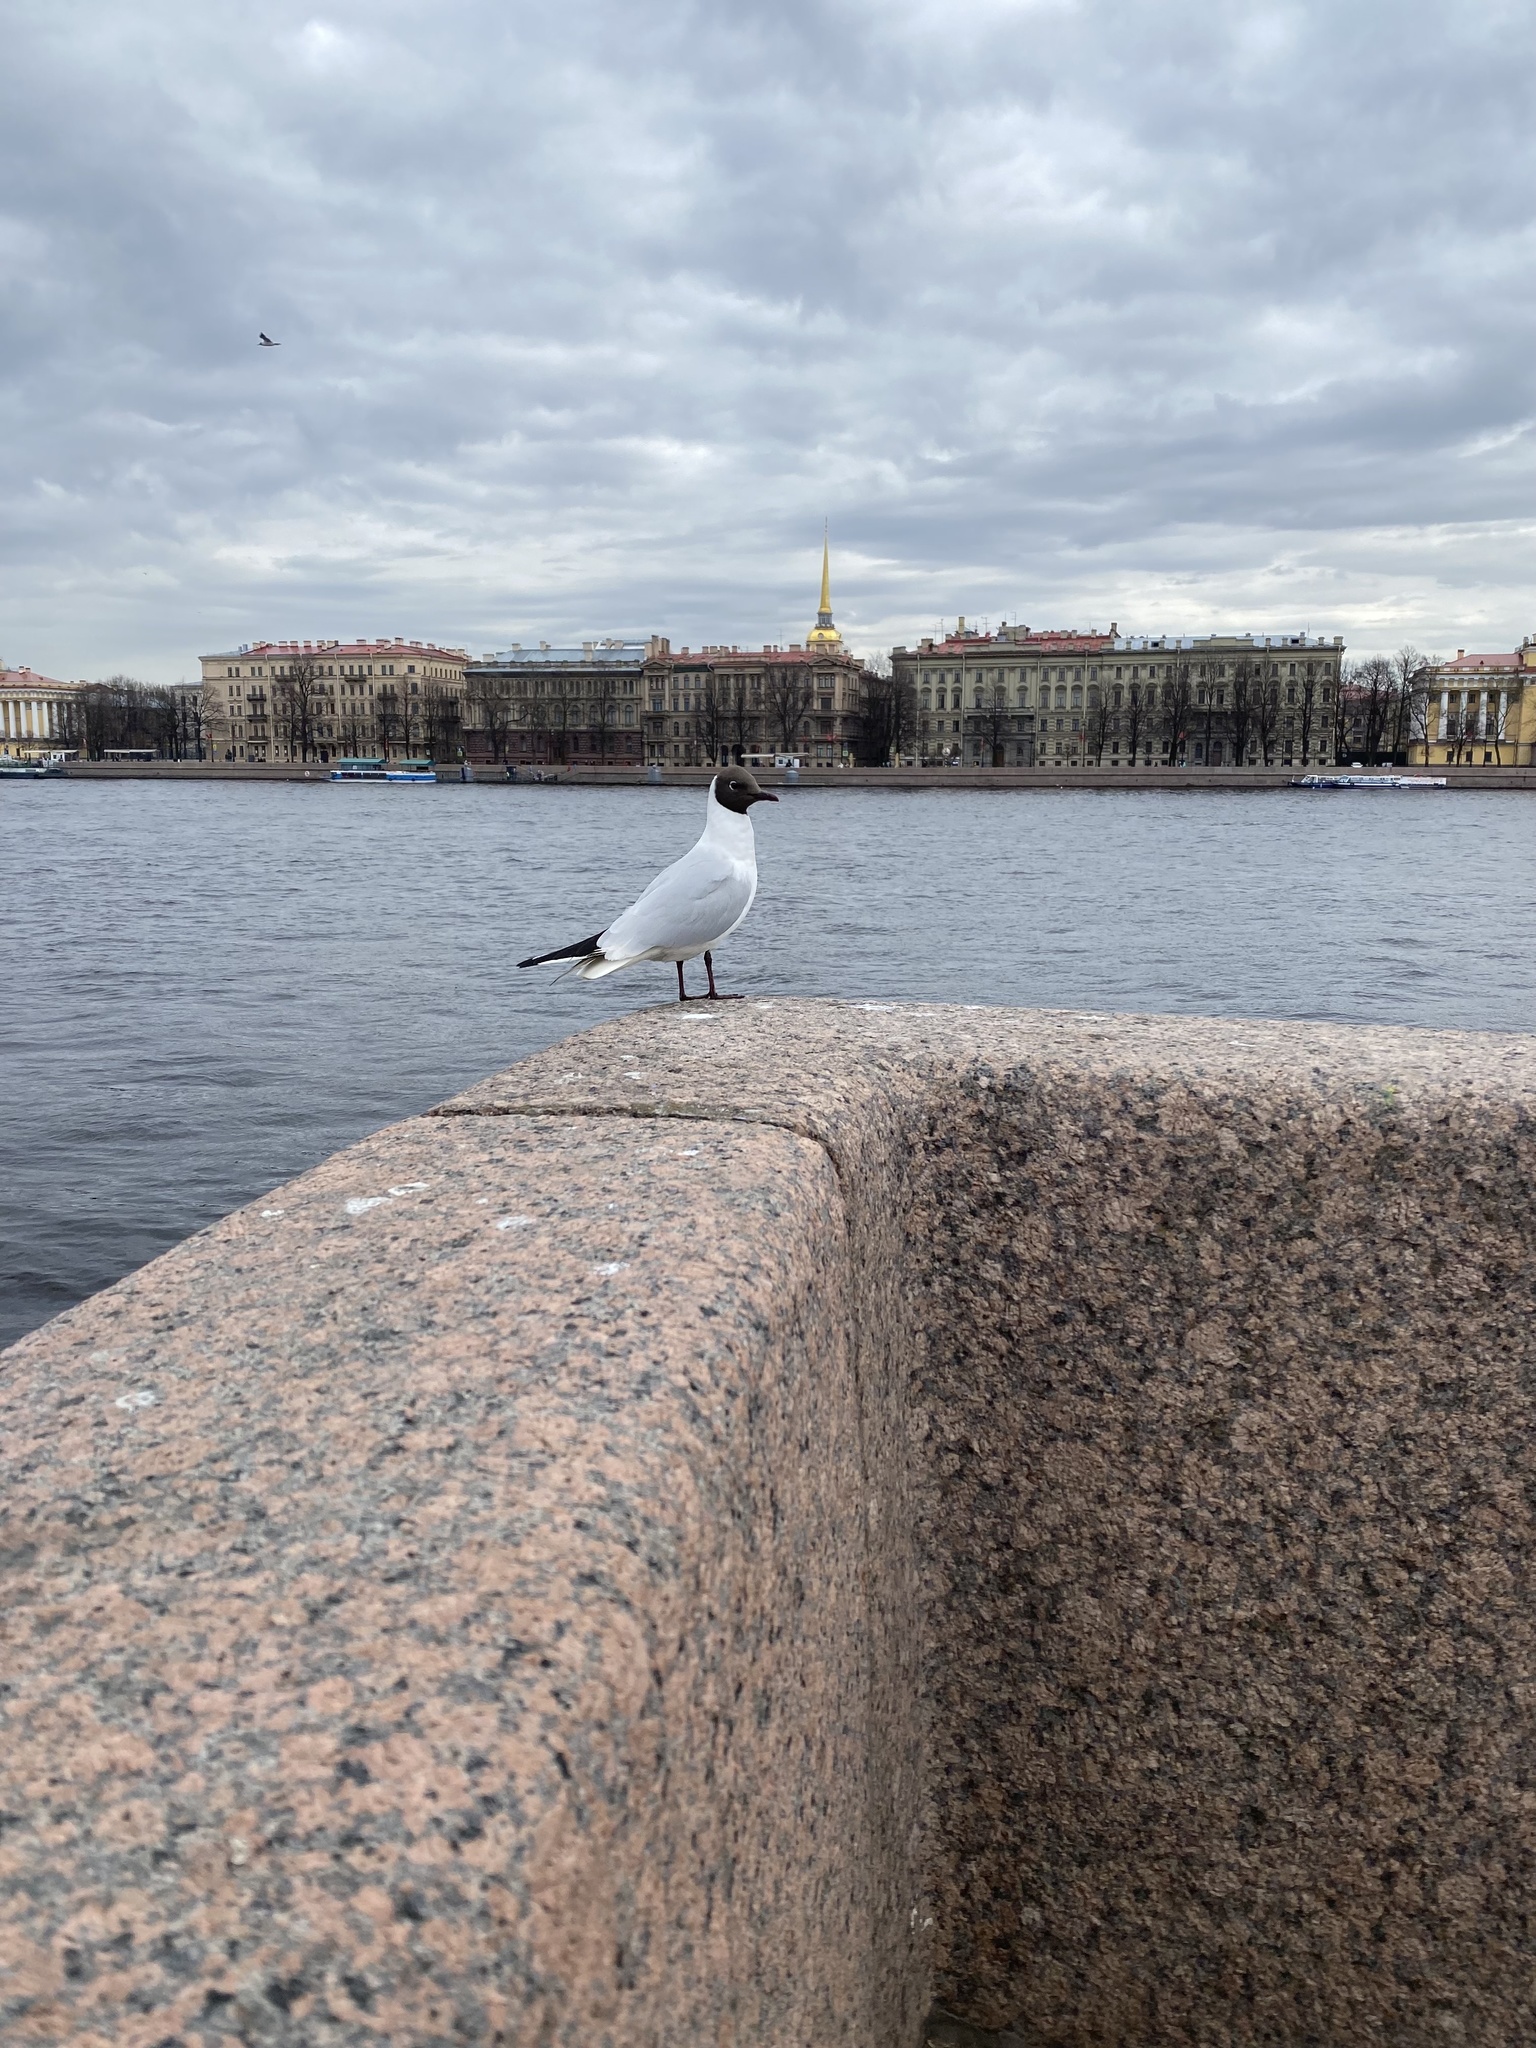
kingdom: Animalia
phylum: Chordata
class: Aves
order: Charadriiformes
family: Laridae
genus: Chroicocephalus
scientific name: Chroicocephalus ridibundus
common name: Black-headed gull
